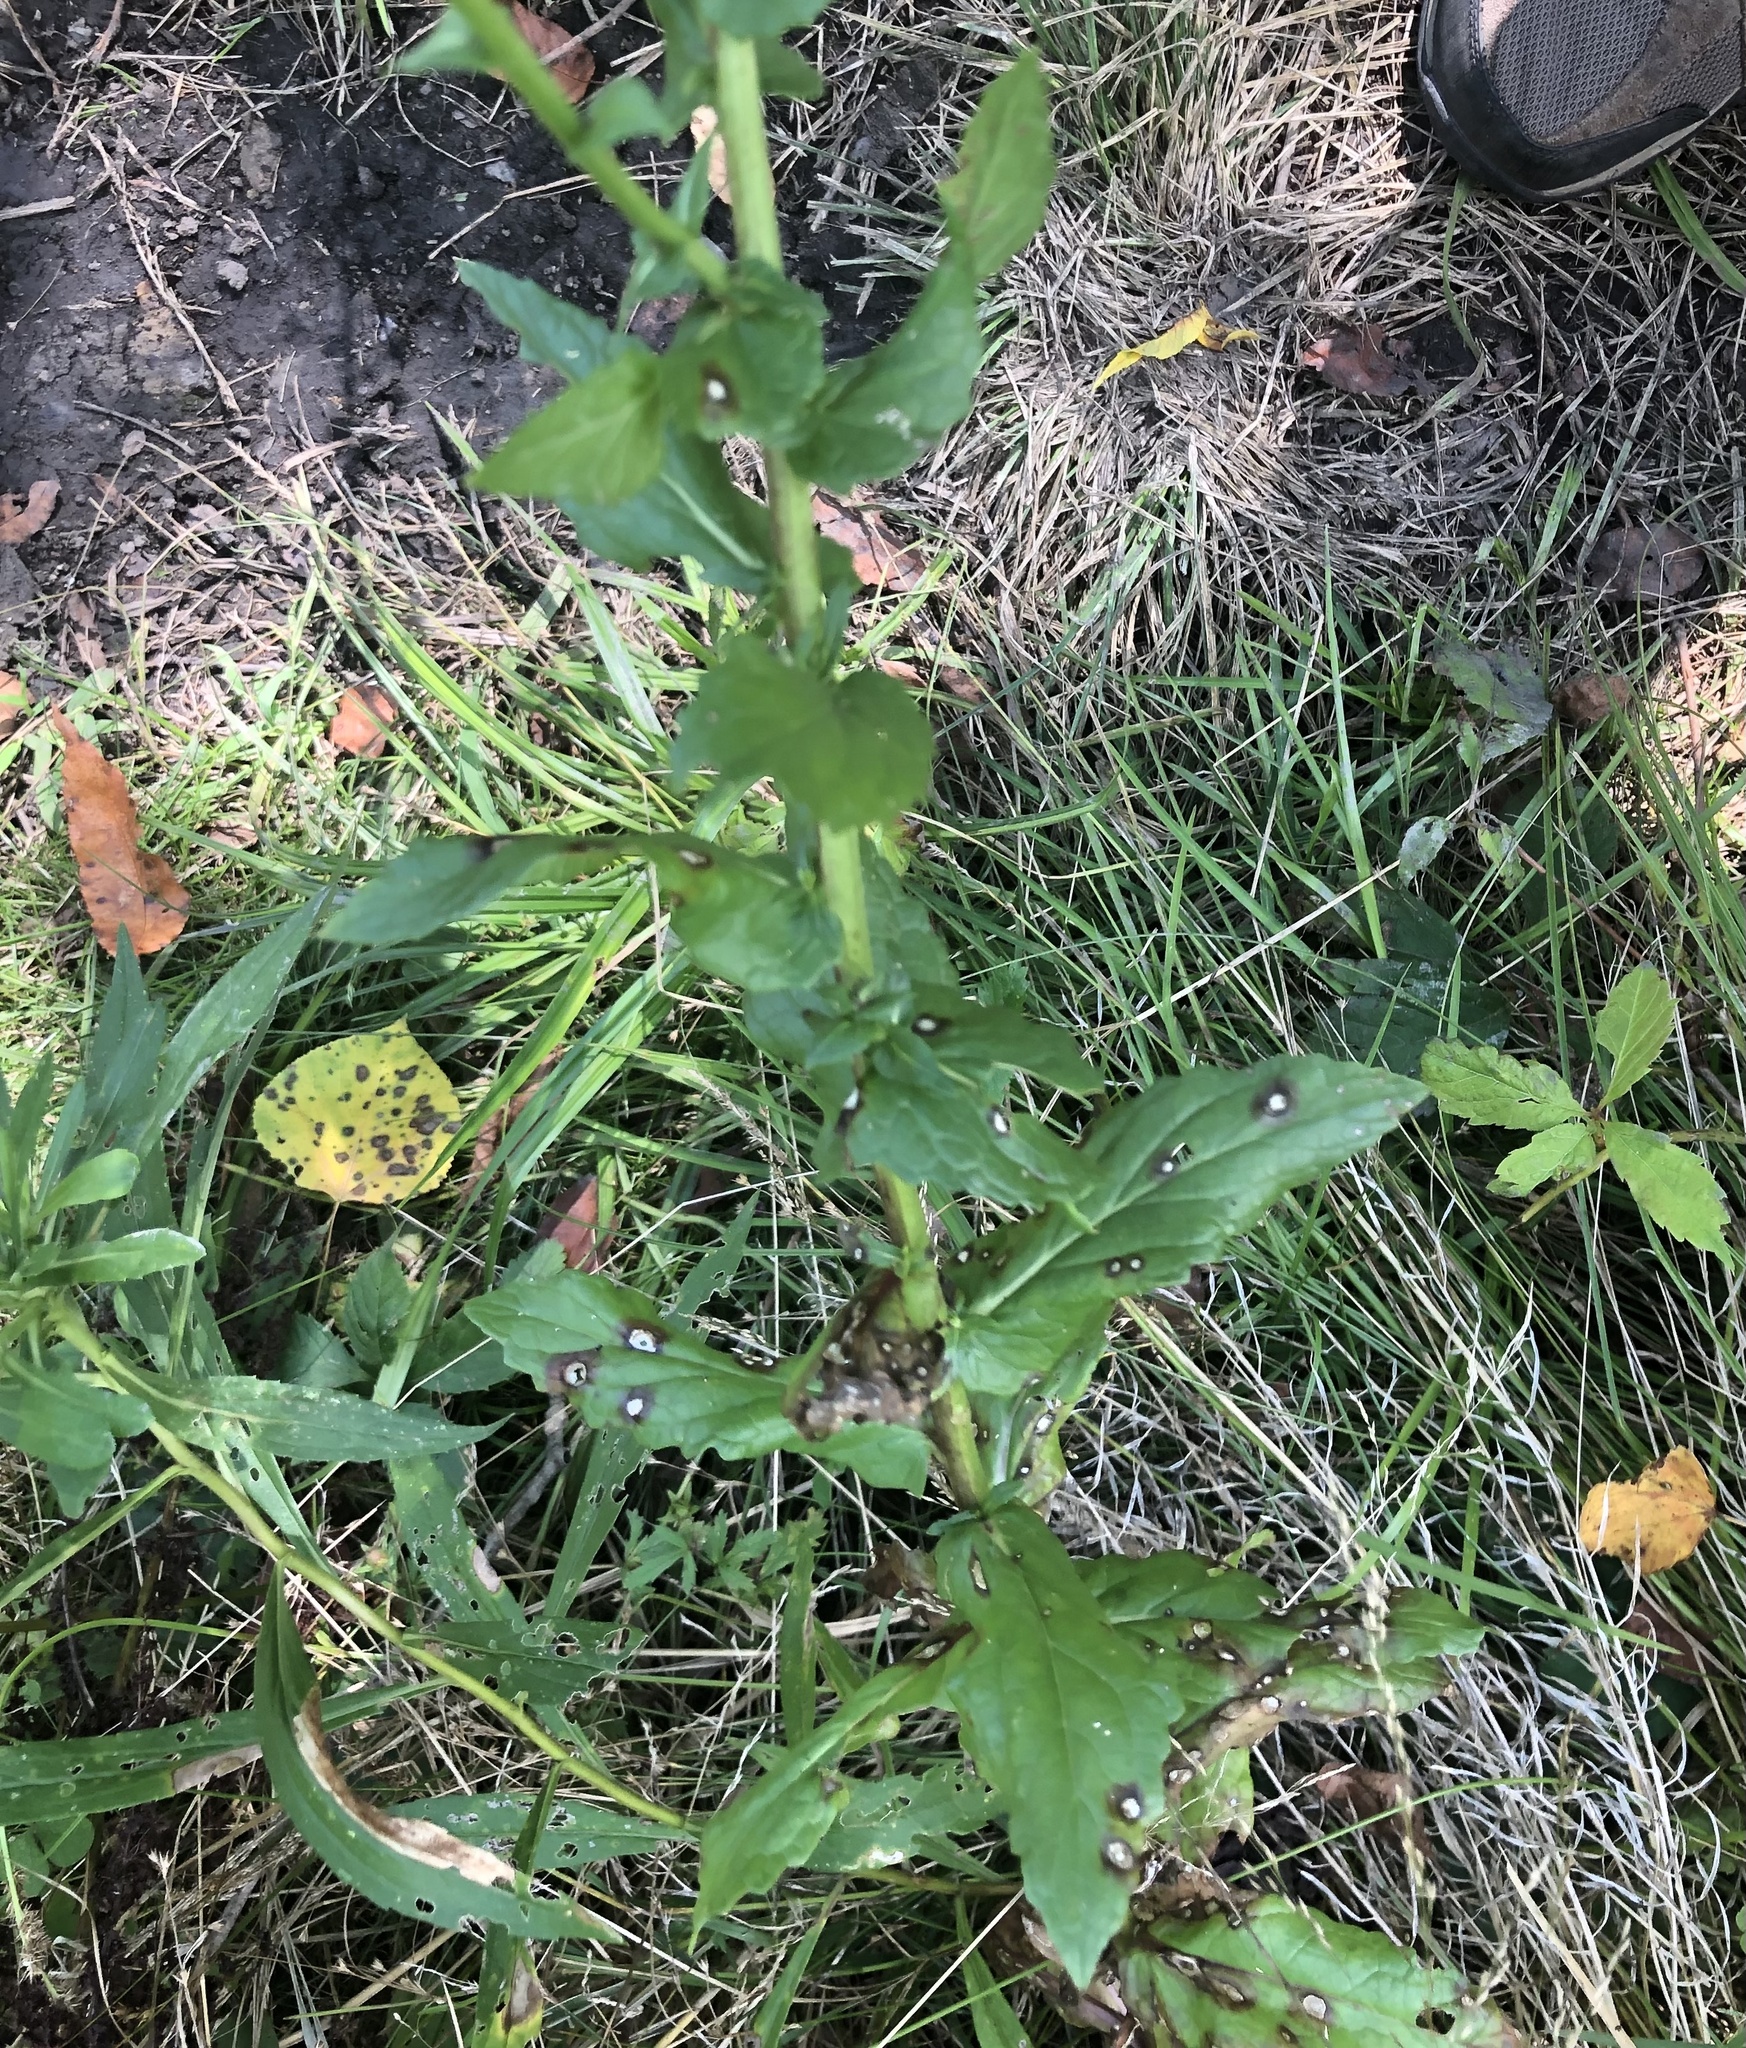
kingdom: Plantae
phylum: Tracheophyta
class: Magnoliopsida
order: Lamiales
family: Scrophulariaceae
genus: Verbascum
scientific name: Verbascum blattaria
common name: Moth mullein
